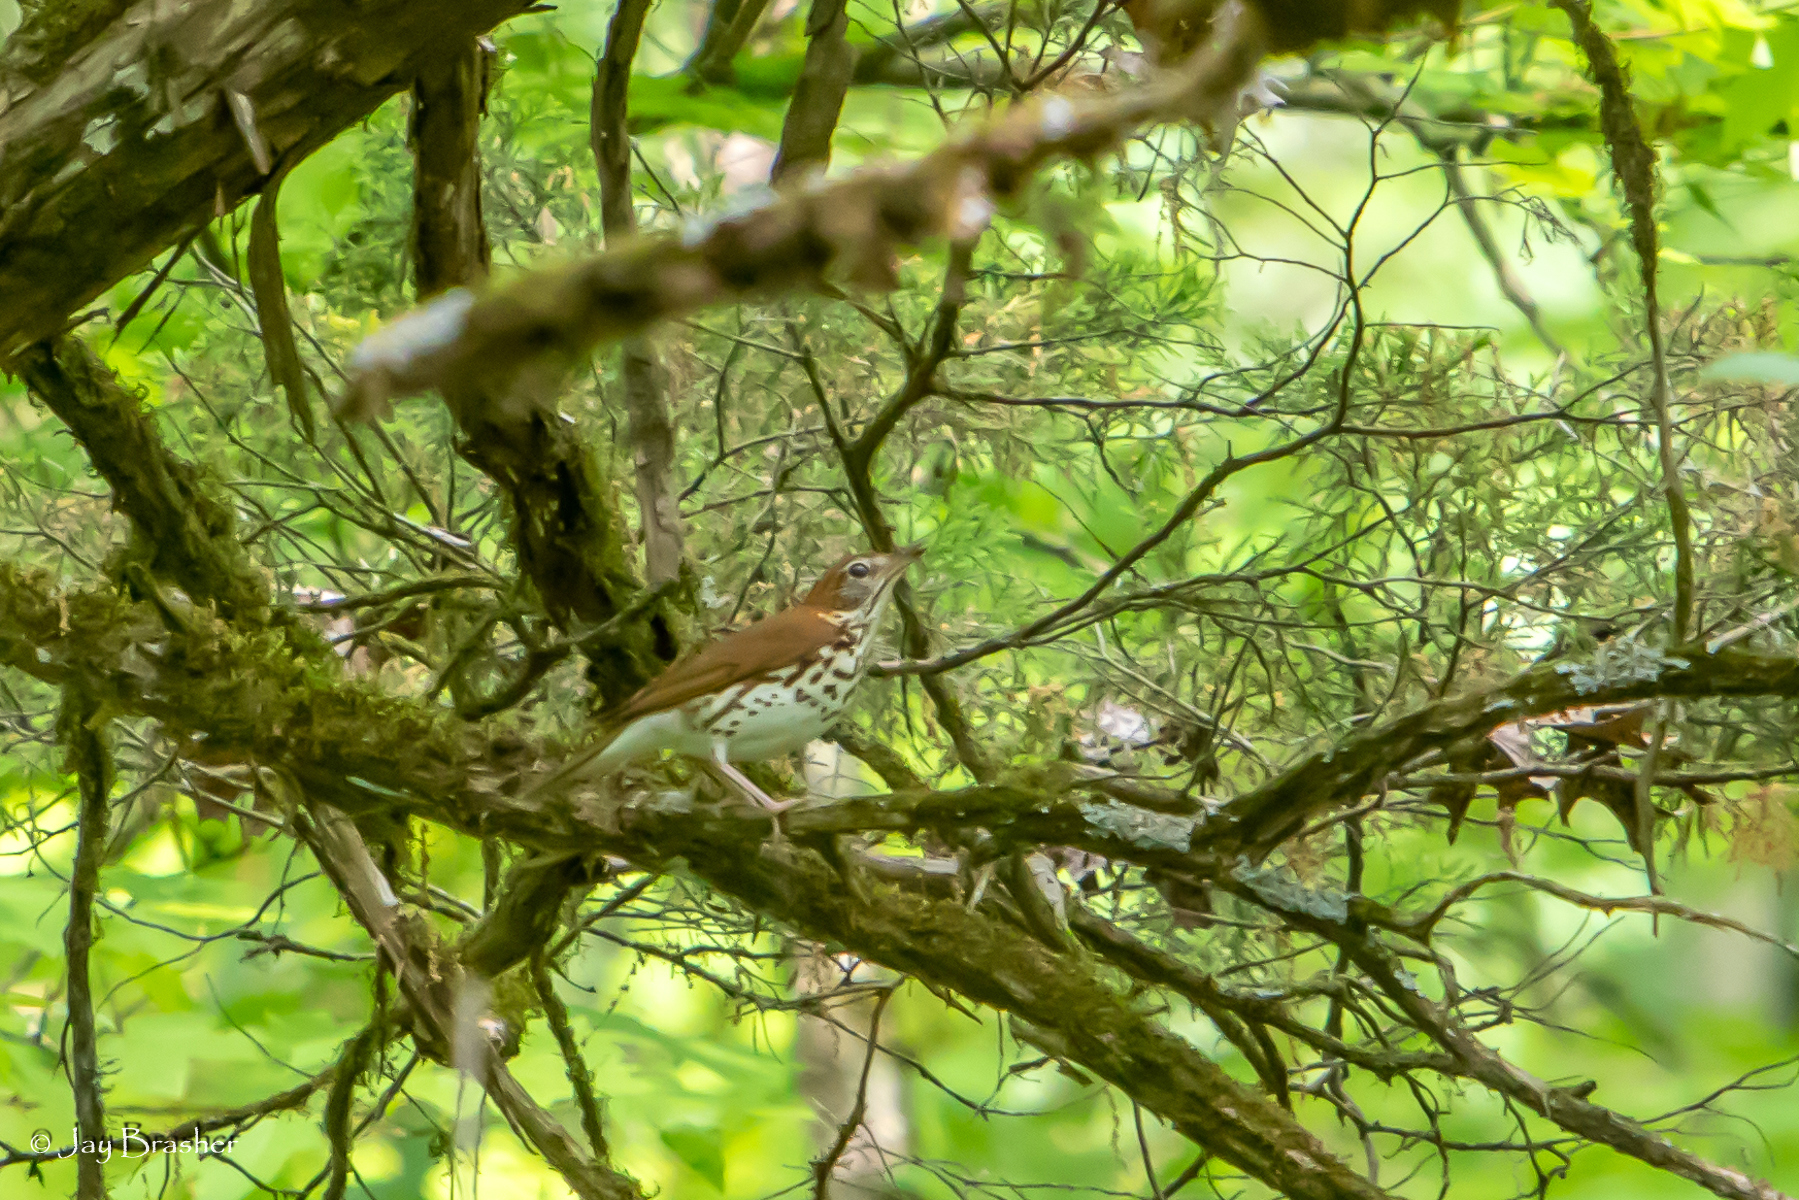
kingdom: Animalia
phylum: Chordata
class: Aves
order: Passeriformes
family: Turdidae
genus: Hylocichla
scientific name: Hylocichla mustelina
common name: Wood thrush
